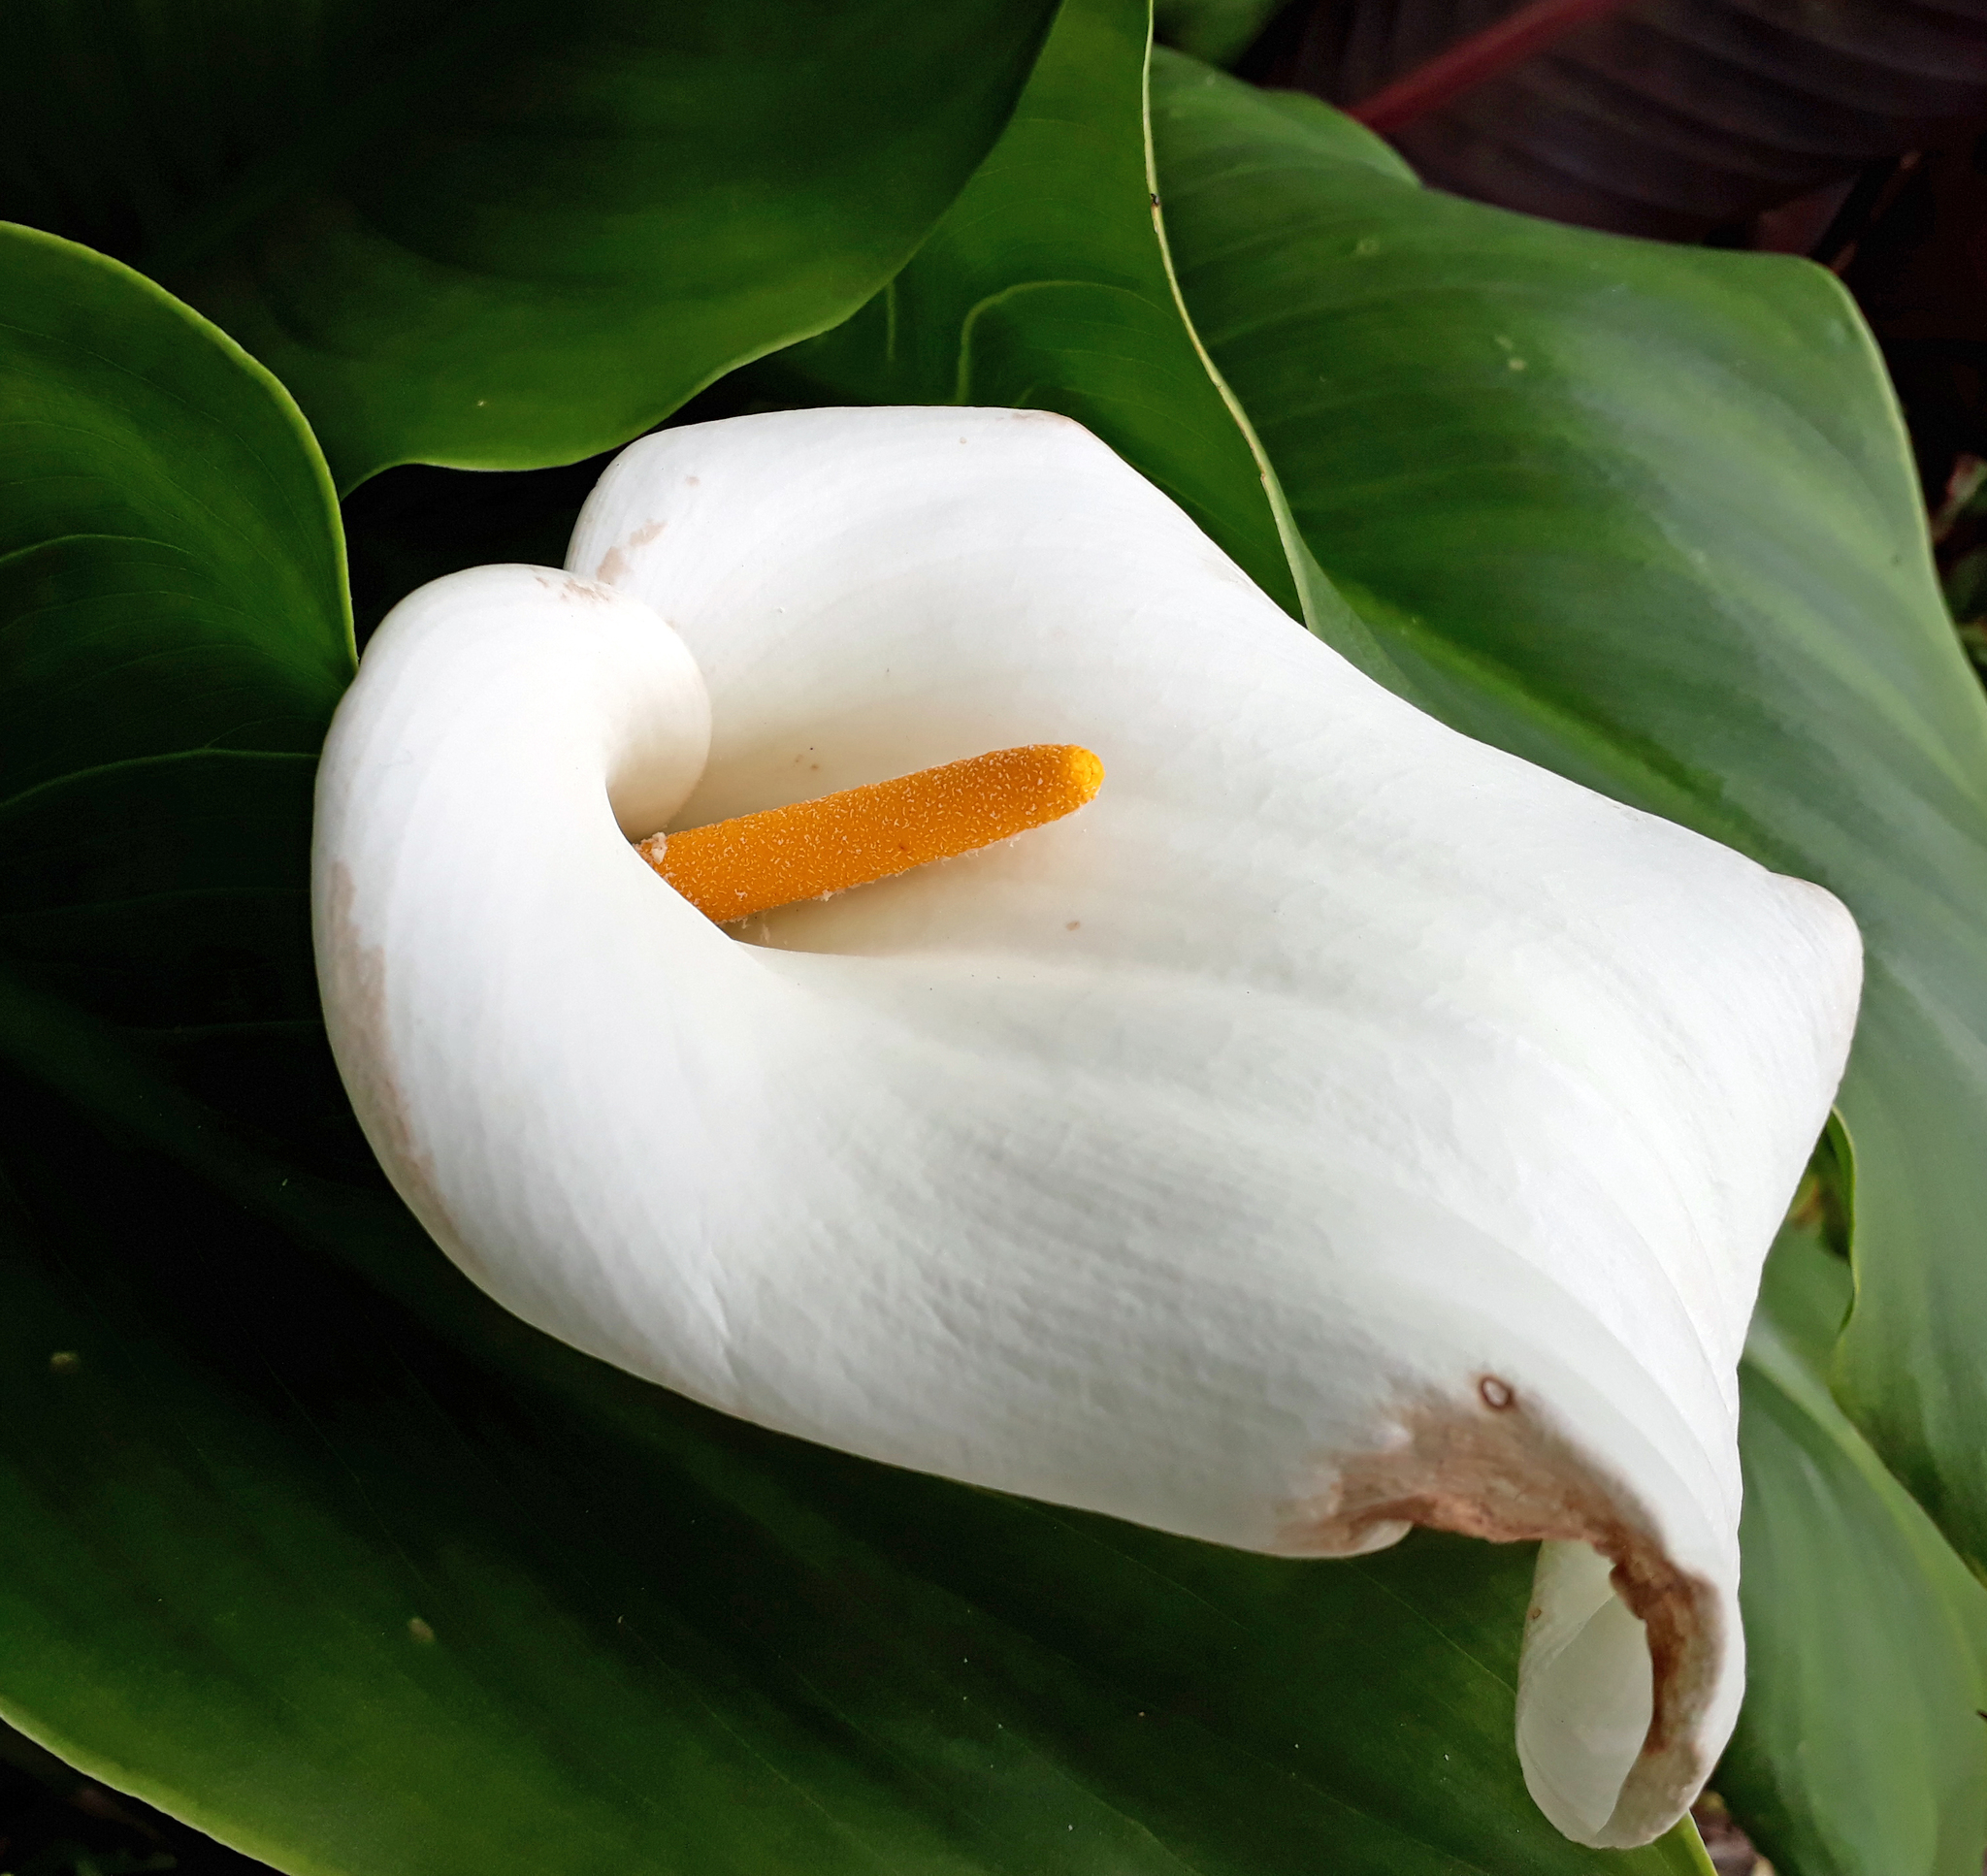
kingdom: Plantae
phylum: Tracheophyta
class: Liliopsida
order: Alismatales
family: Araceae
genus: Zantedeschia
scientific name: Zantedeschia aethiopica
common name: Altar-lily
